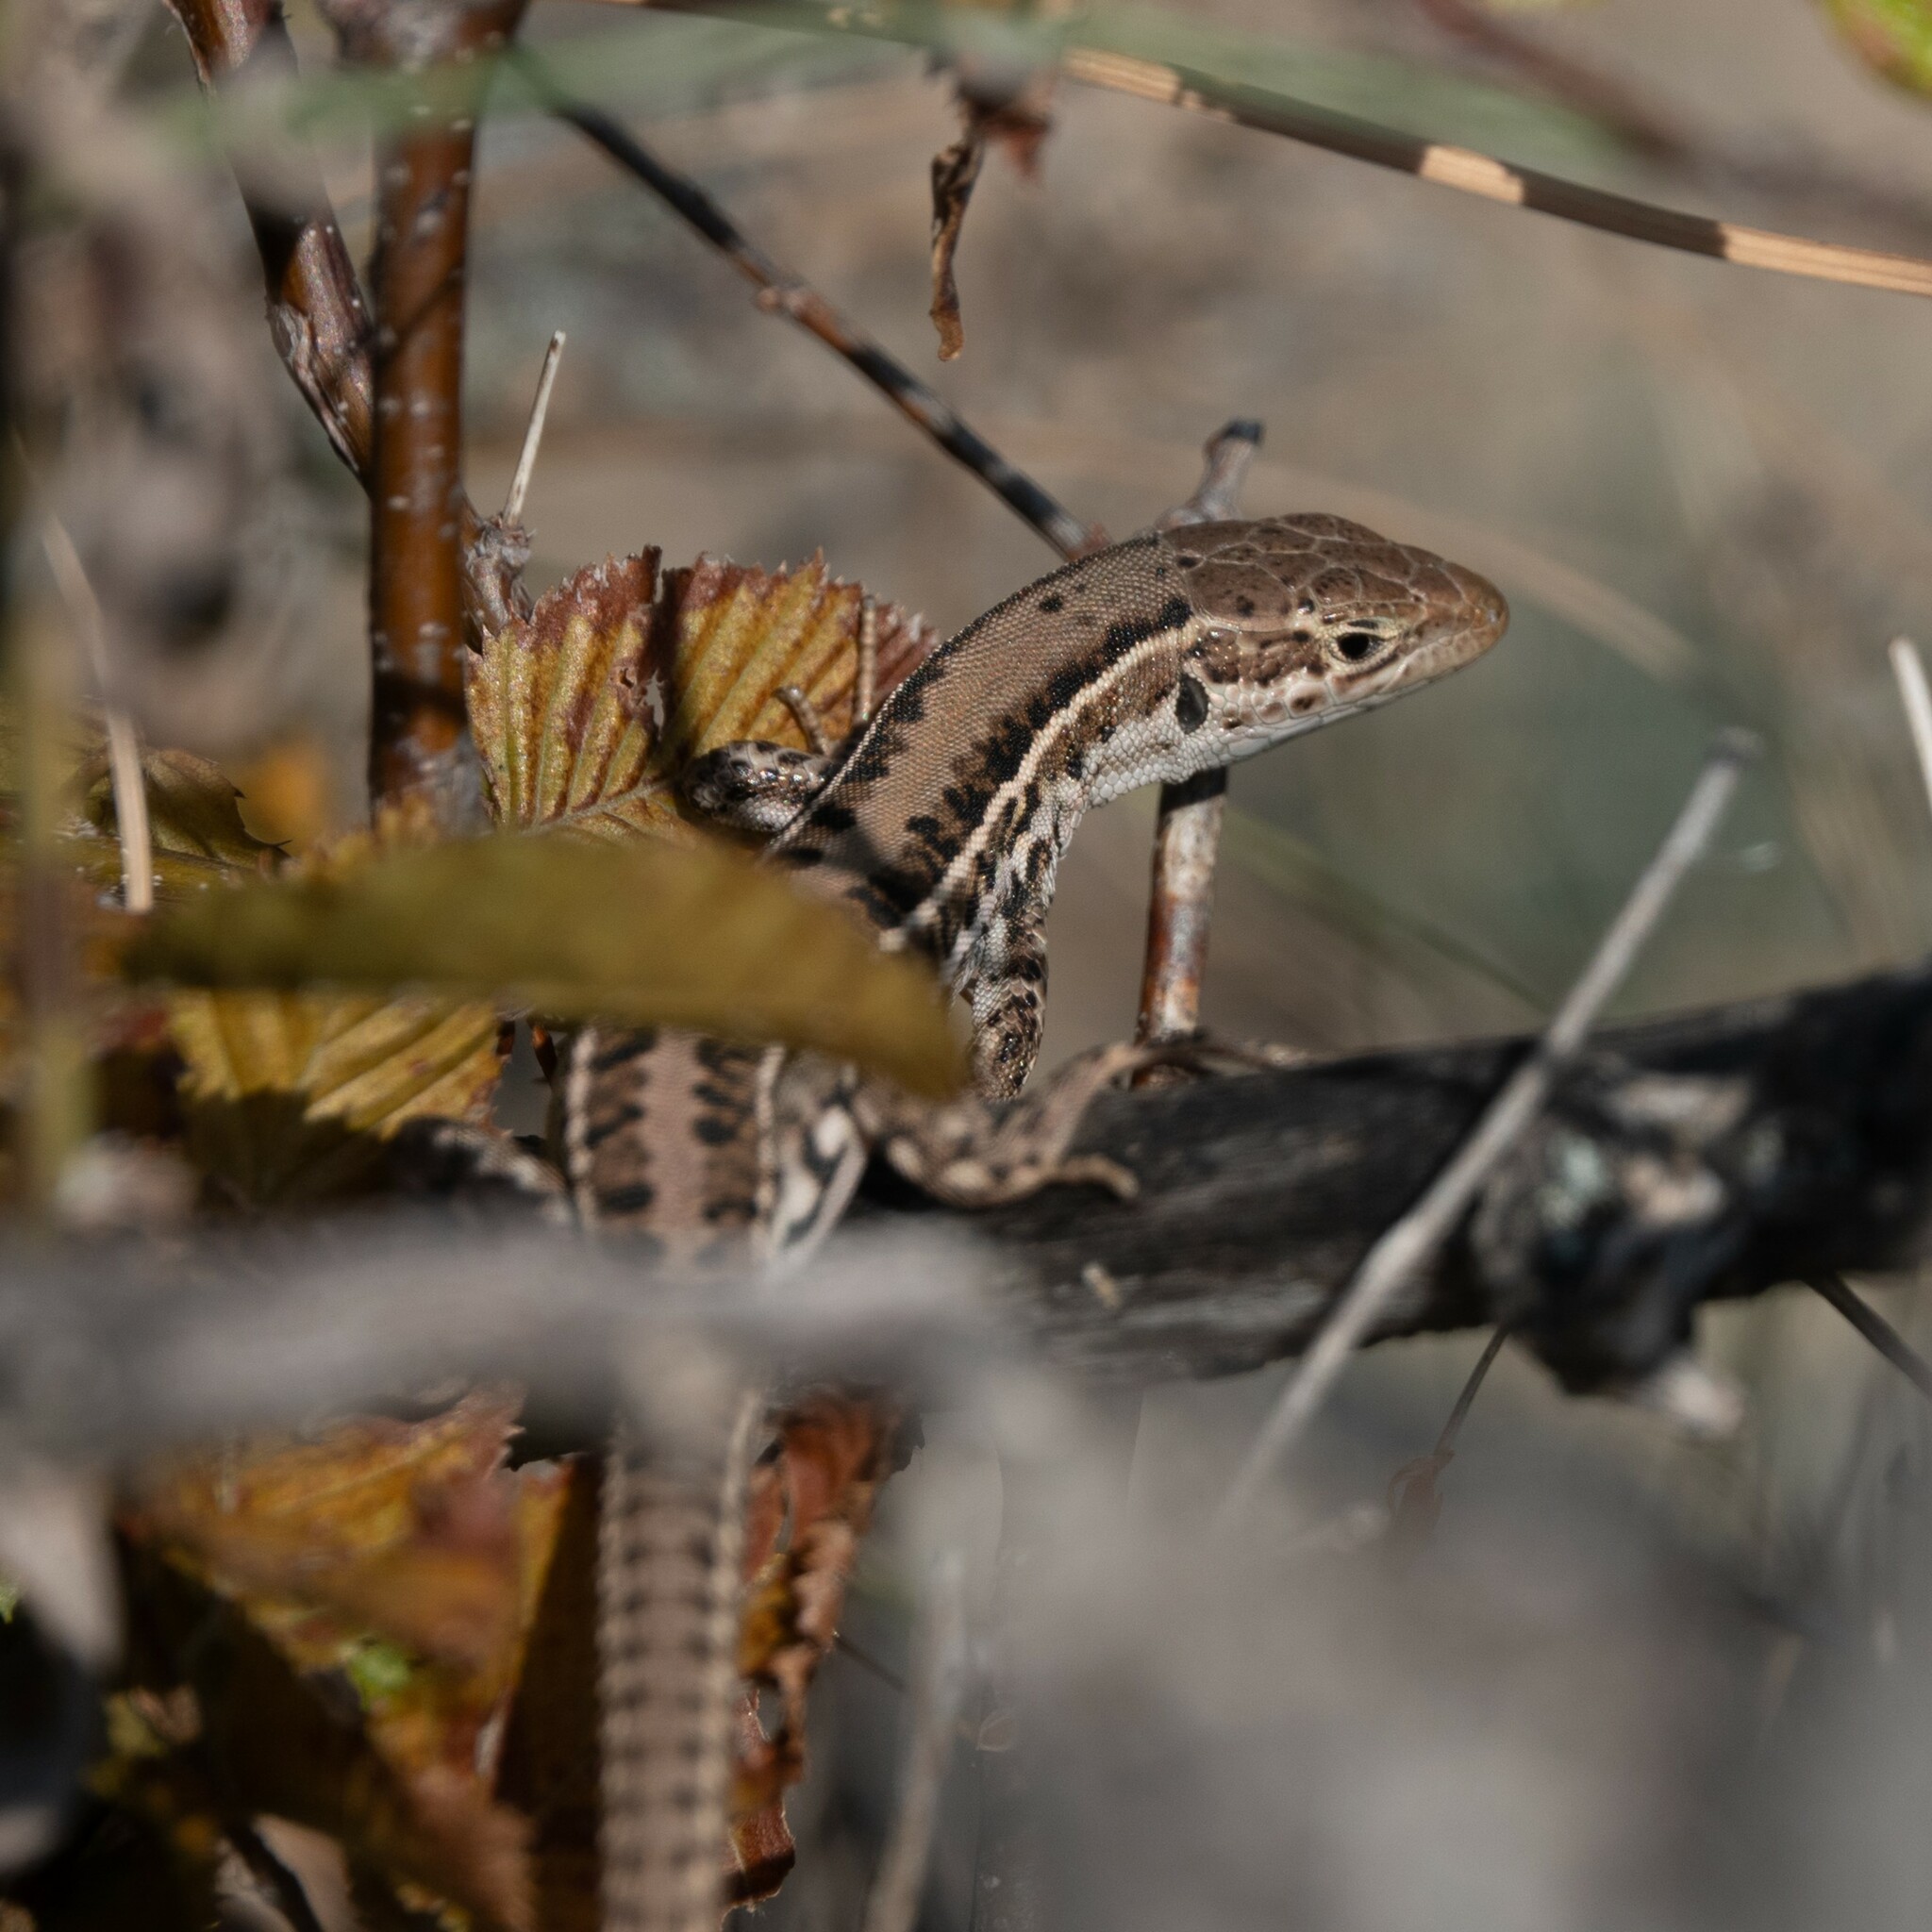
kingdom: Animalia
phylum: Chordata
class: Squamata
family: Lacertidae
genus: Podarcis
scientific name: Podarcis tauricus
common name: Balkan wall lizard
